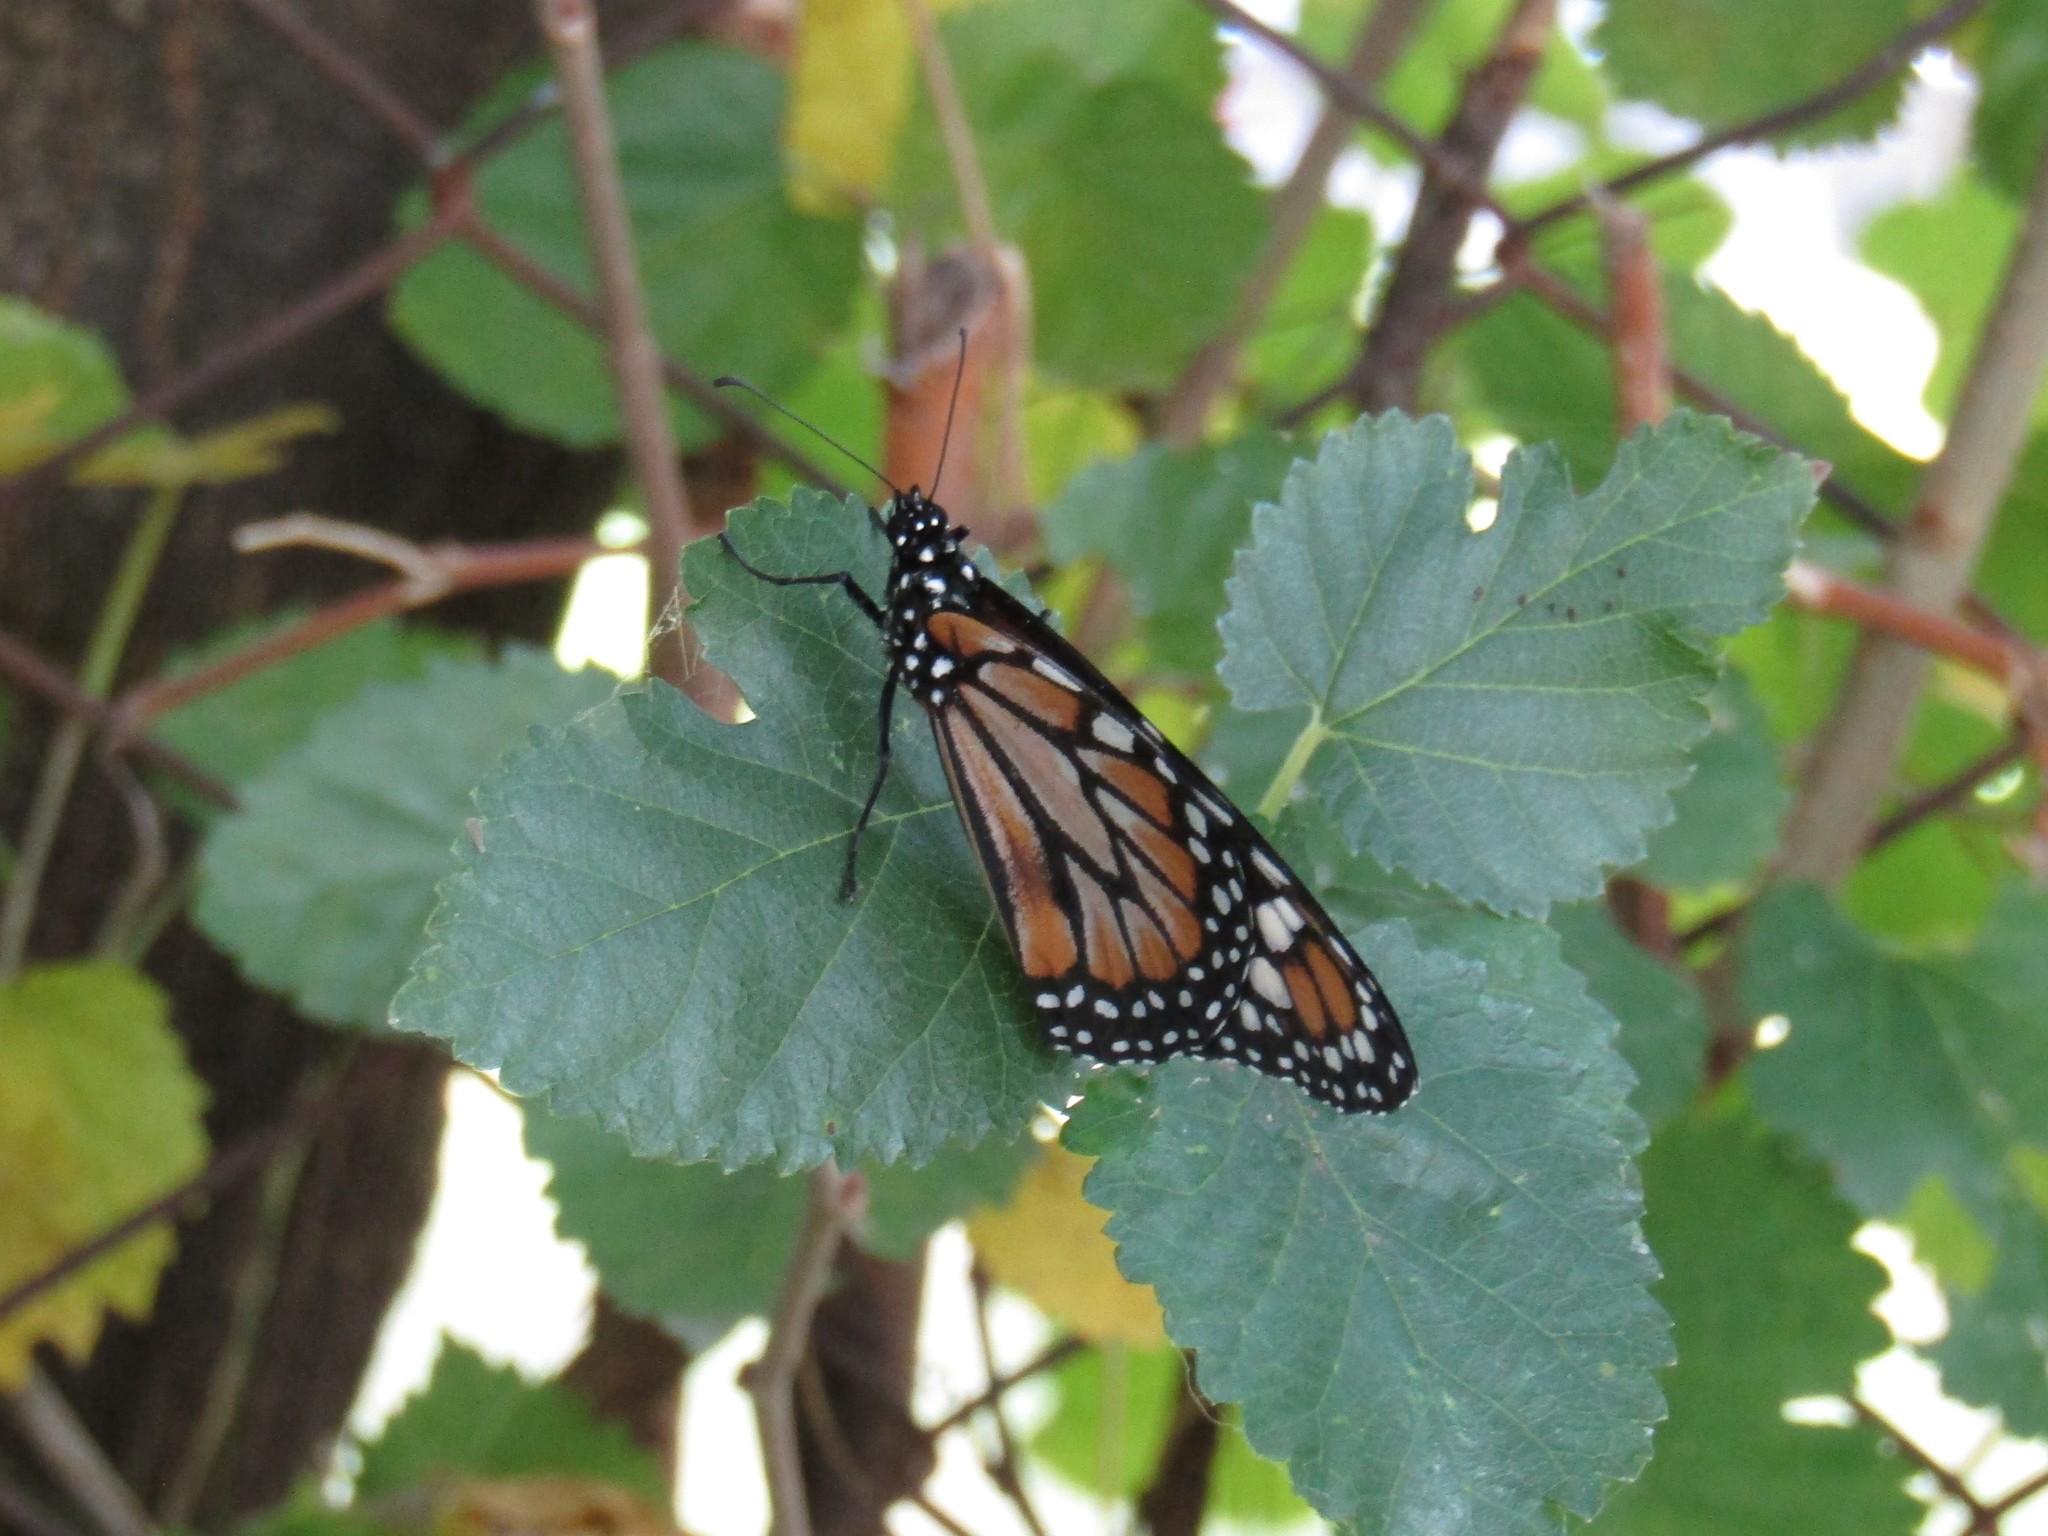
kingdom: Animalia
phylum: Arthropoda
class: Insecta
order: Lepidoptera
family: Nymphalidae
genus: Danaus
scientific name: Danaus erippus
